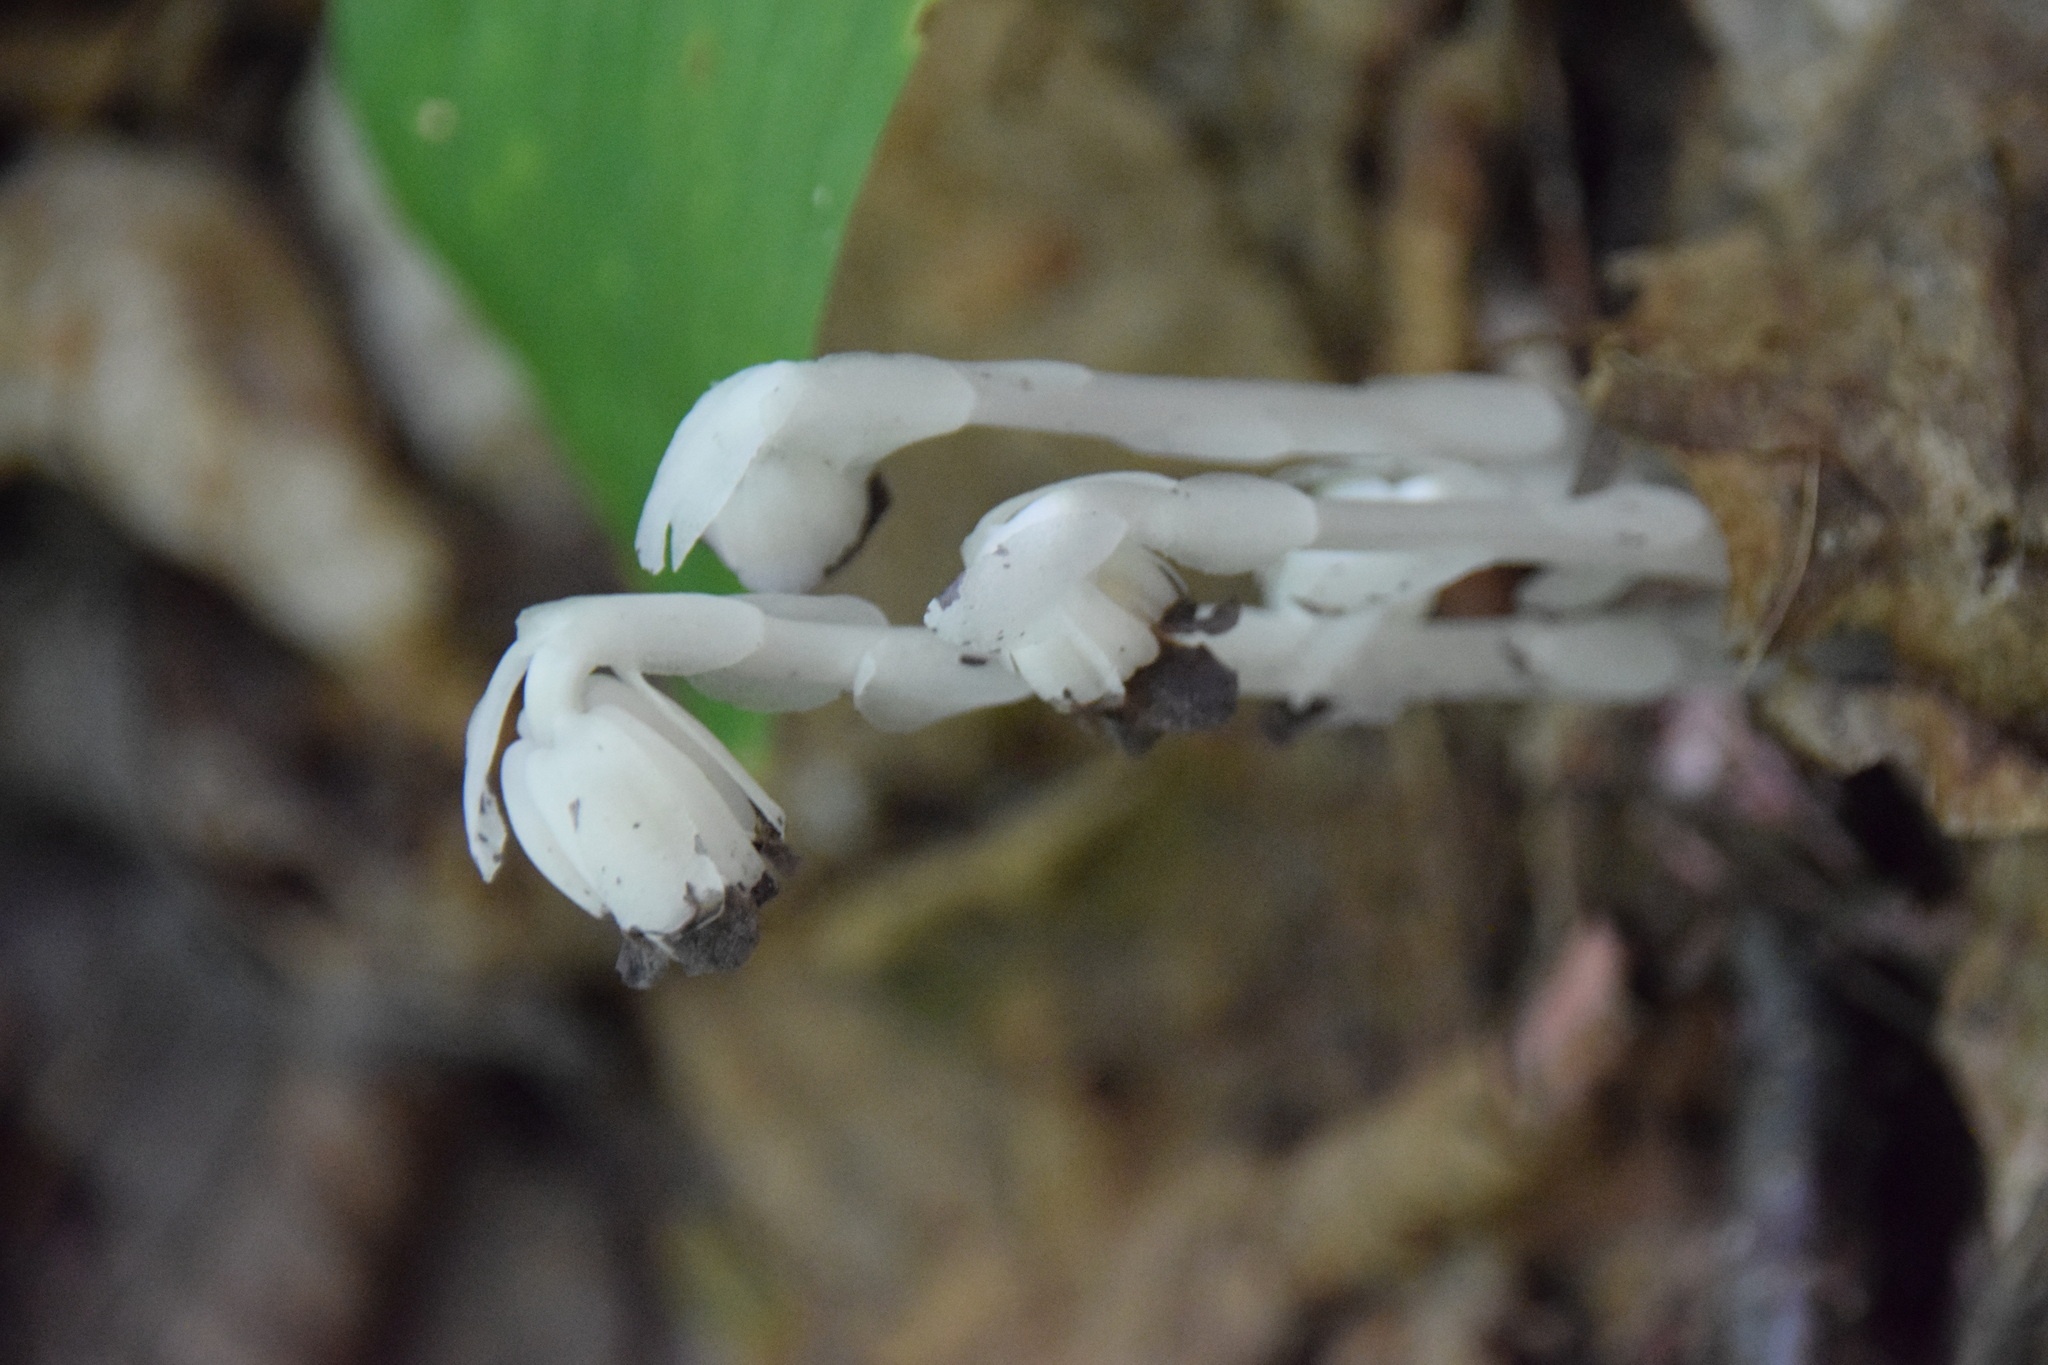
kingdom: Plantae
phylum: Tracheophyta
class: Magnoliopsida
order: Ericales
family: Ericaceae
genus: Monotropa
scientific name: Monotropa uniflora
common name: Convulsion root
